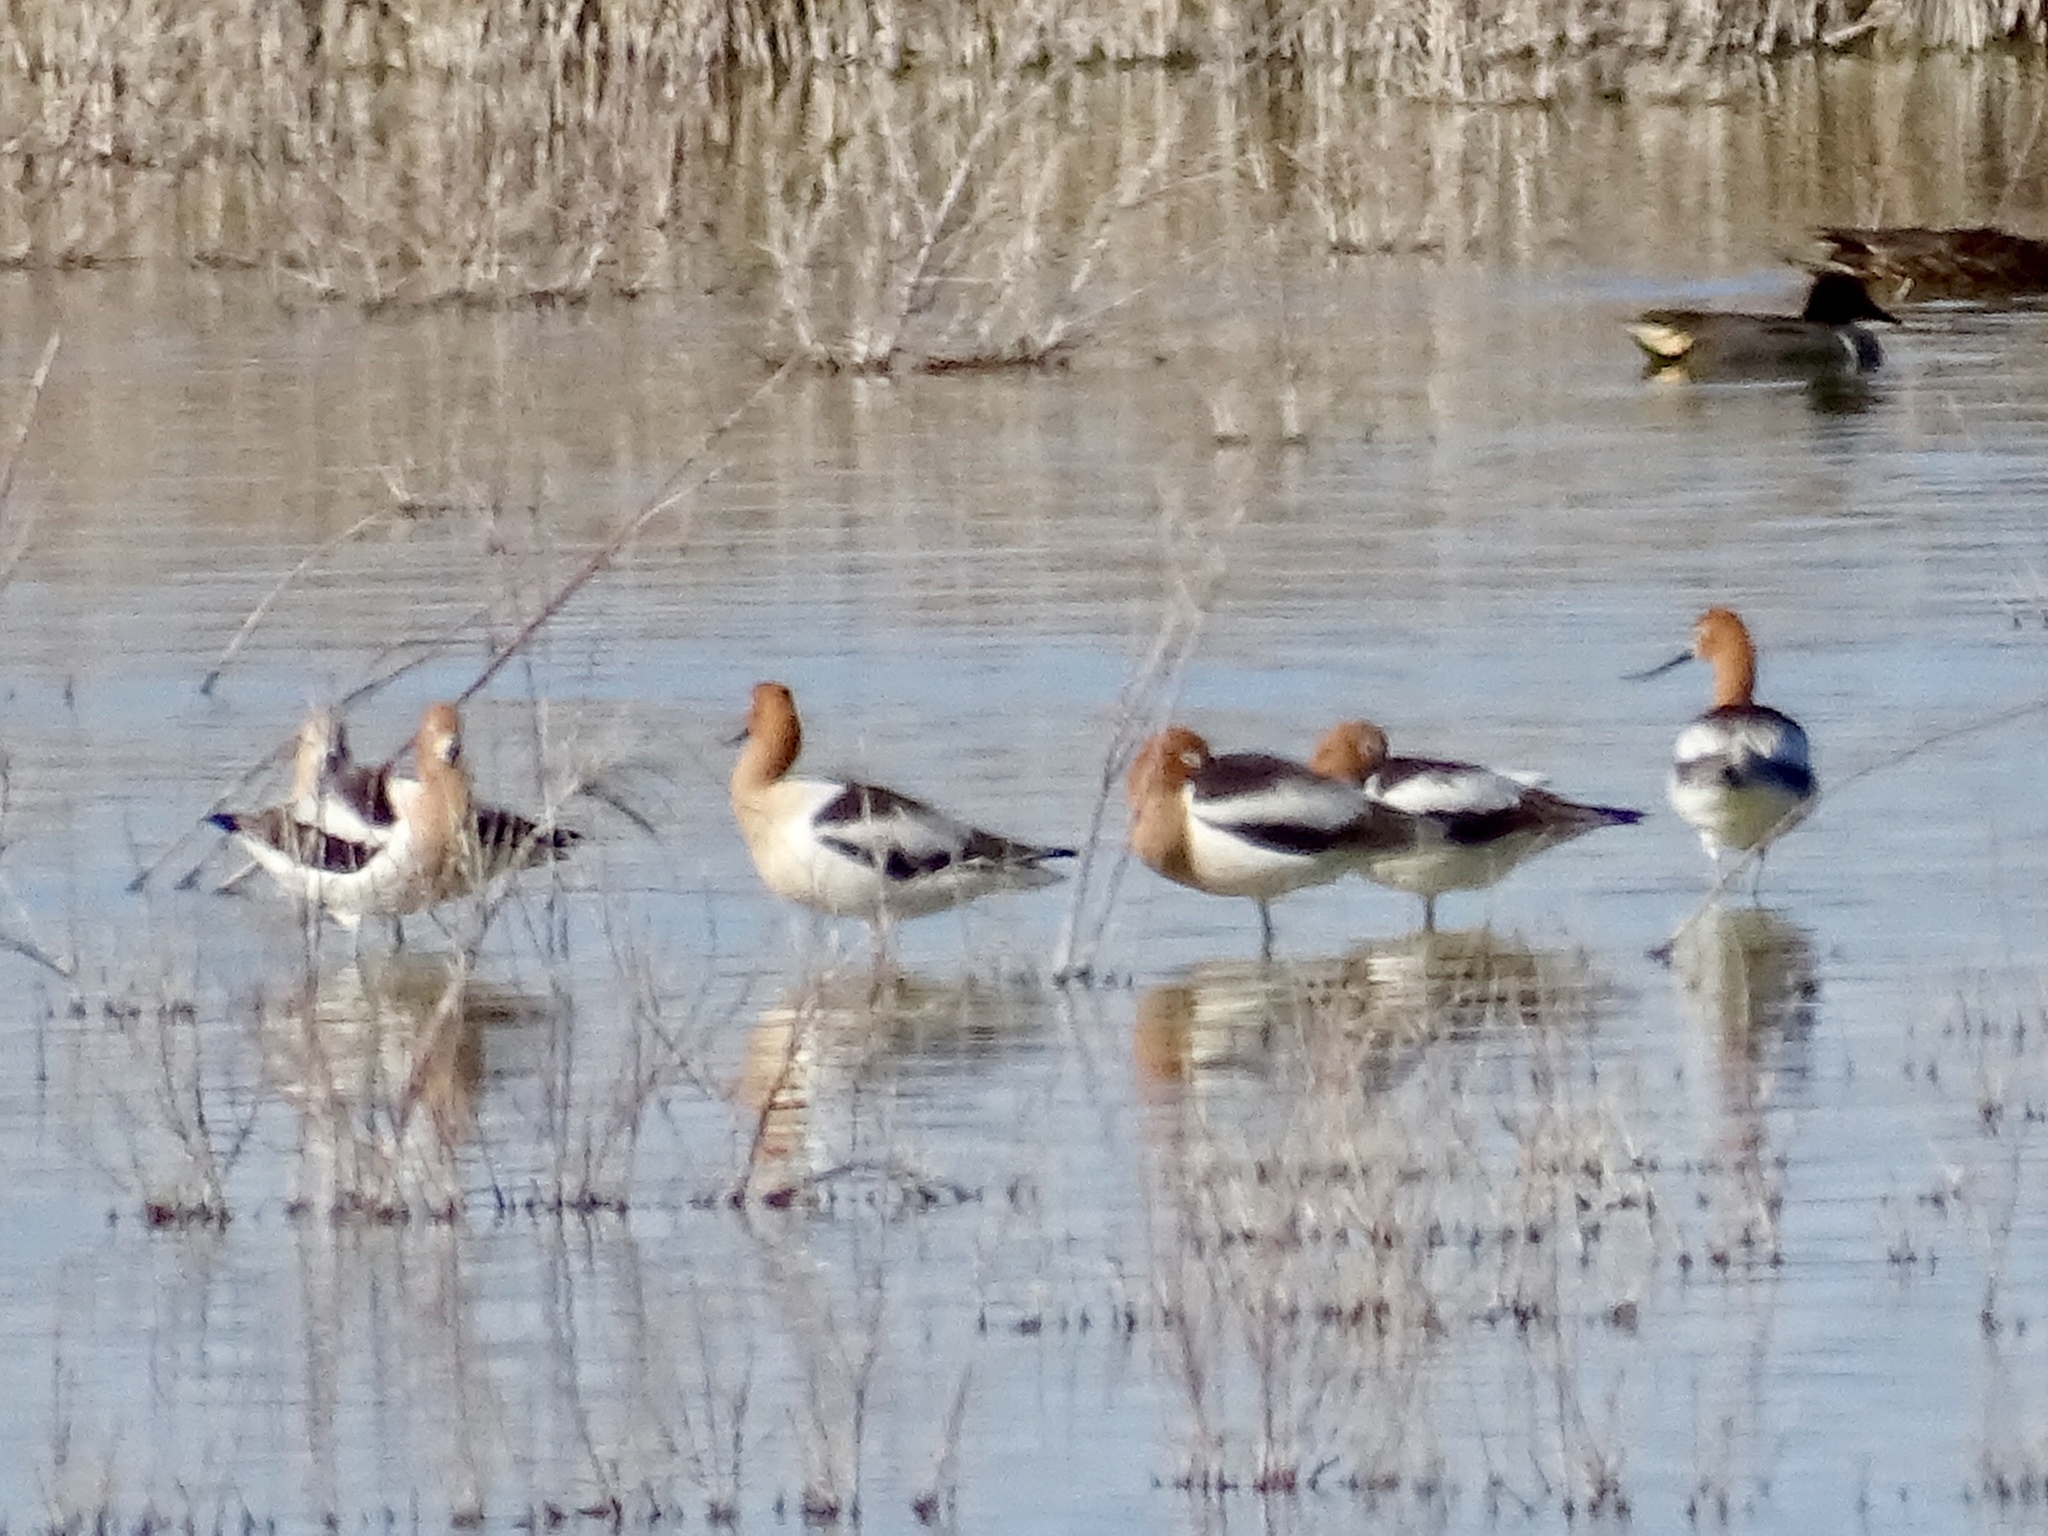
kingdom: Animalia
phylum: Chordata
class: Aves
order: Charadriiformes
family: Recurvirostridae
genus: Recurvirostra
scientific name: Recurvirostra americana
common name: American avocet
